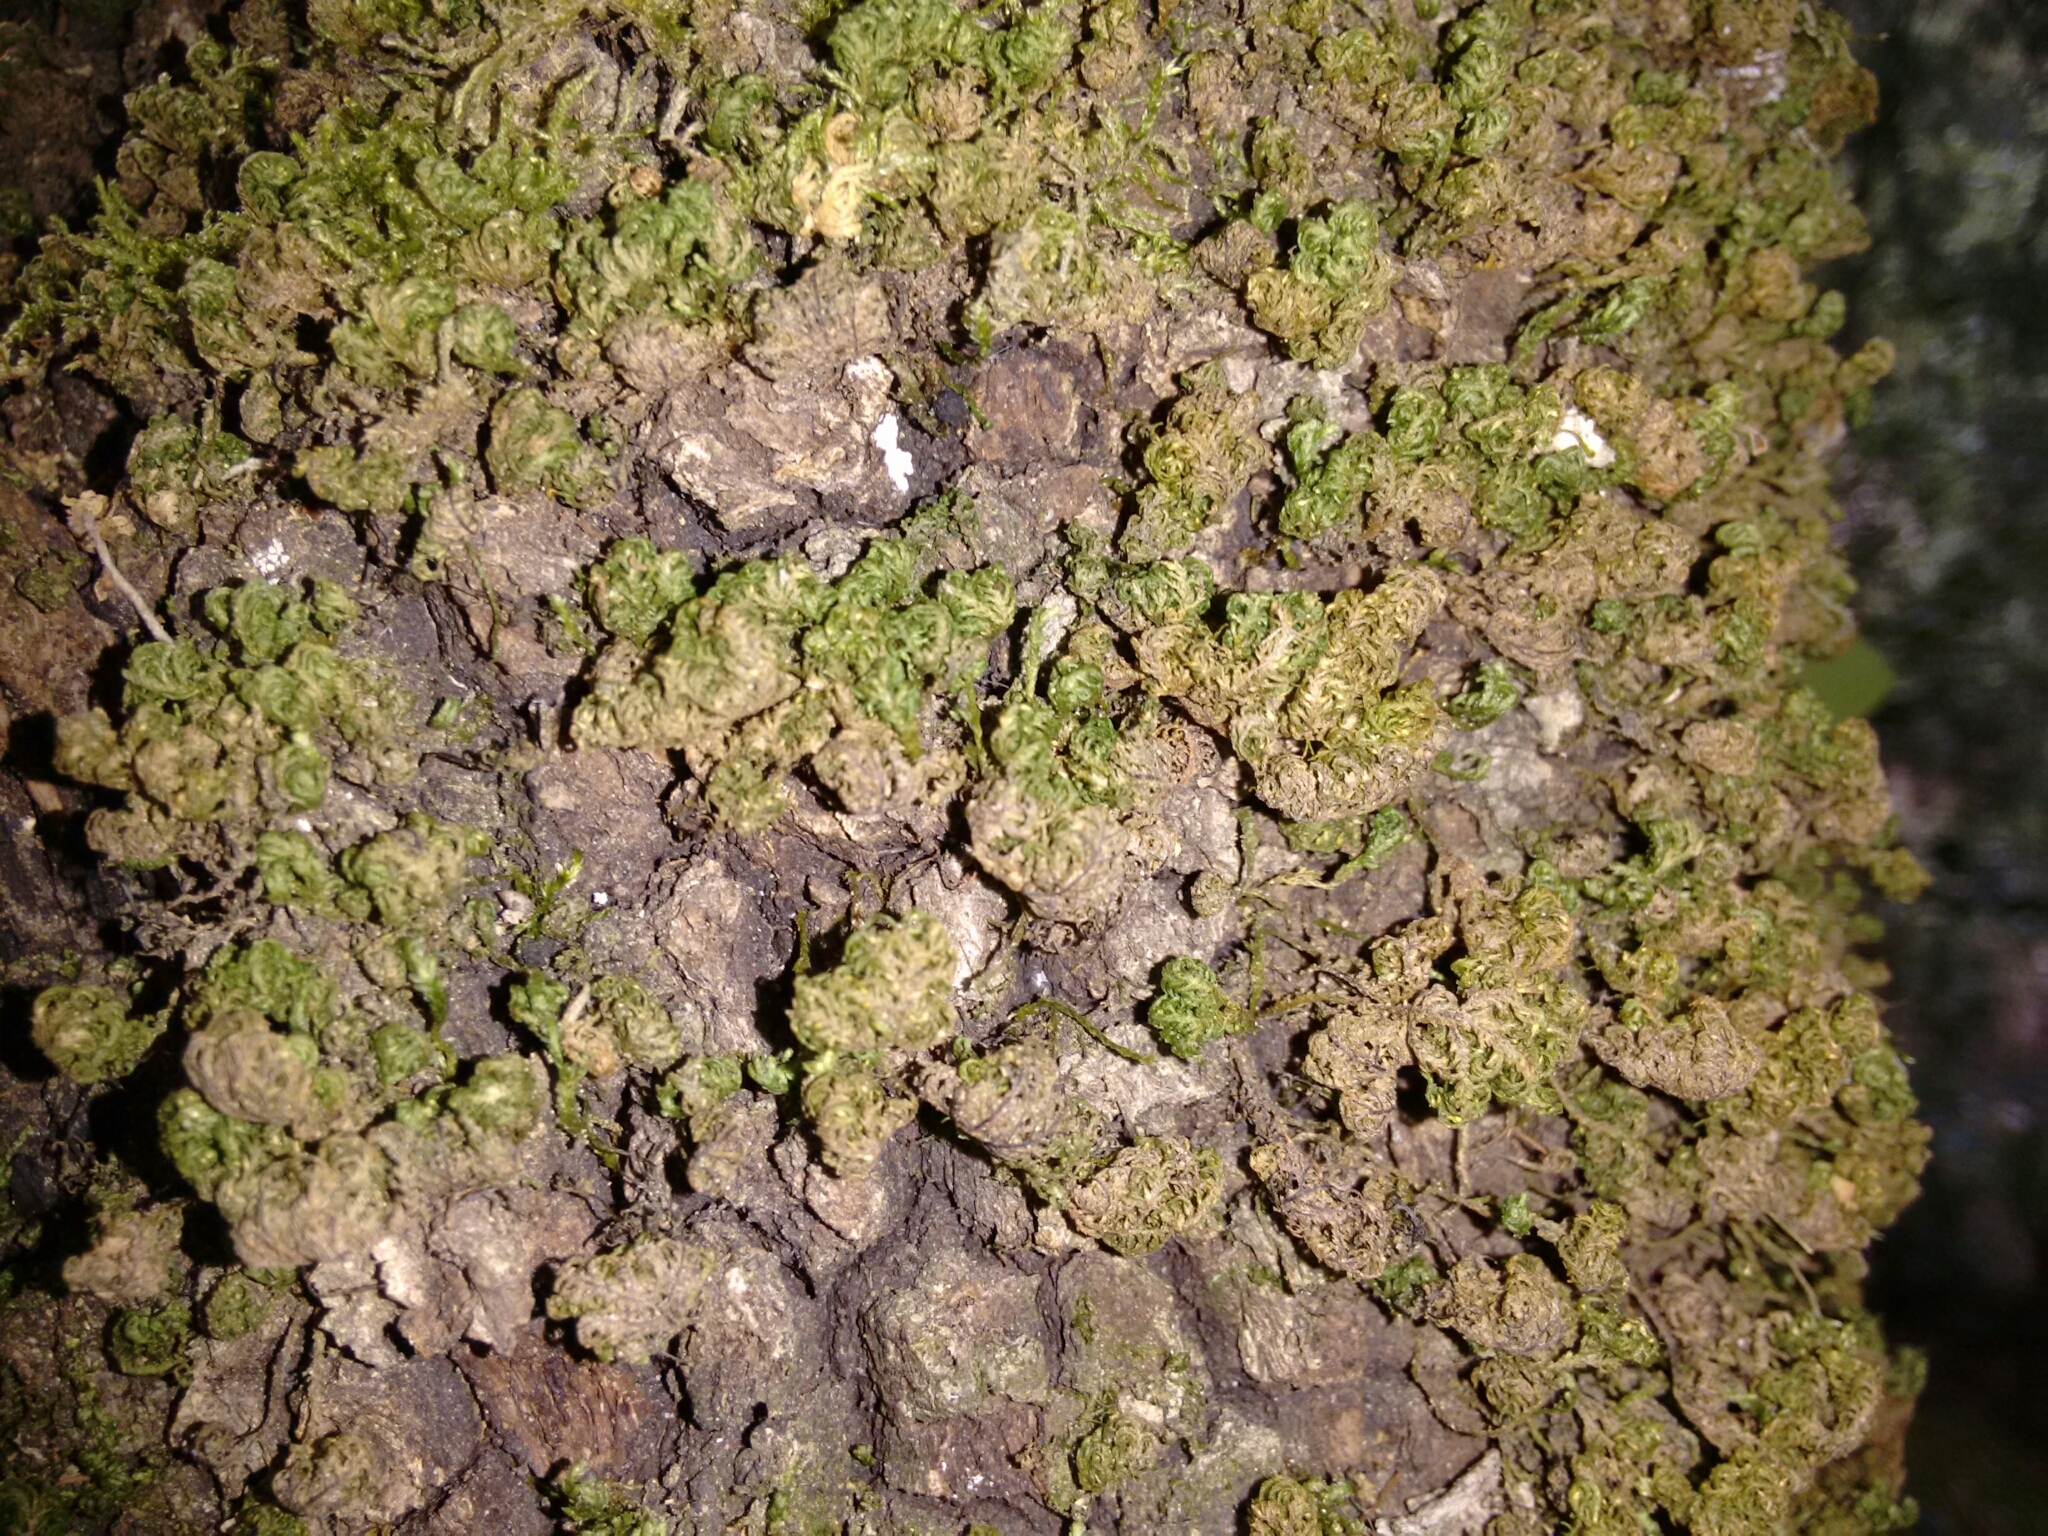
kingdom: Plantae
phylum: Bryophyta
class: Bryopsida
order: Hypnales
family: Neckeraceae
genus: Leptodon
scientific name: Leptodon smithii
